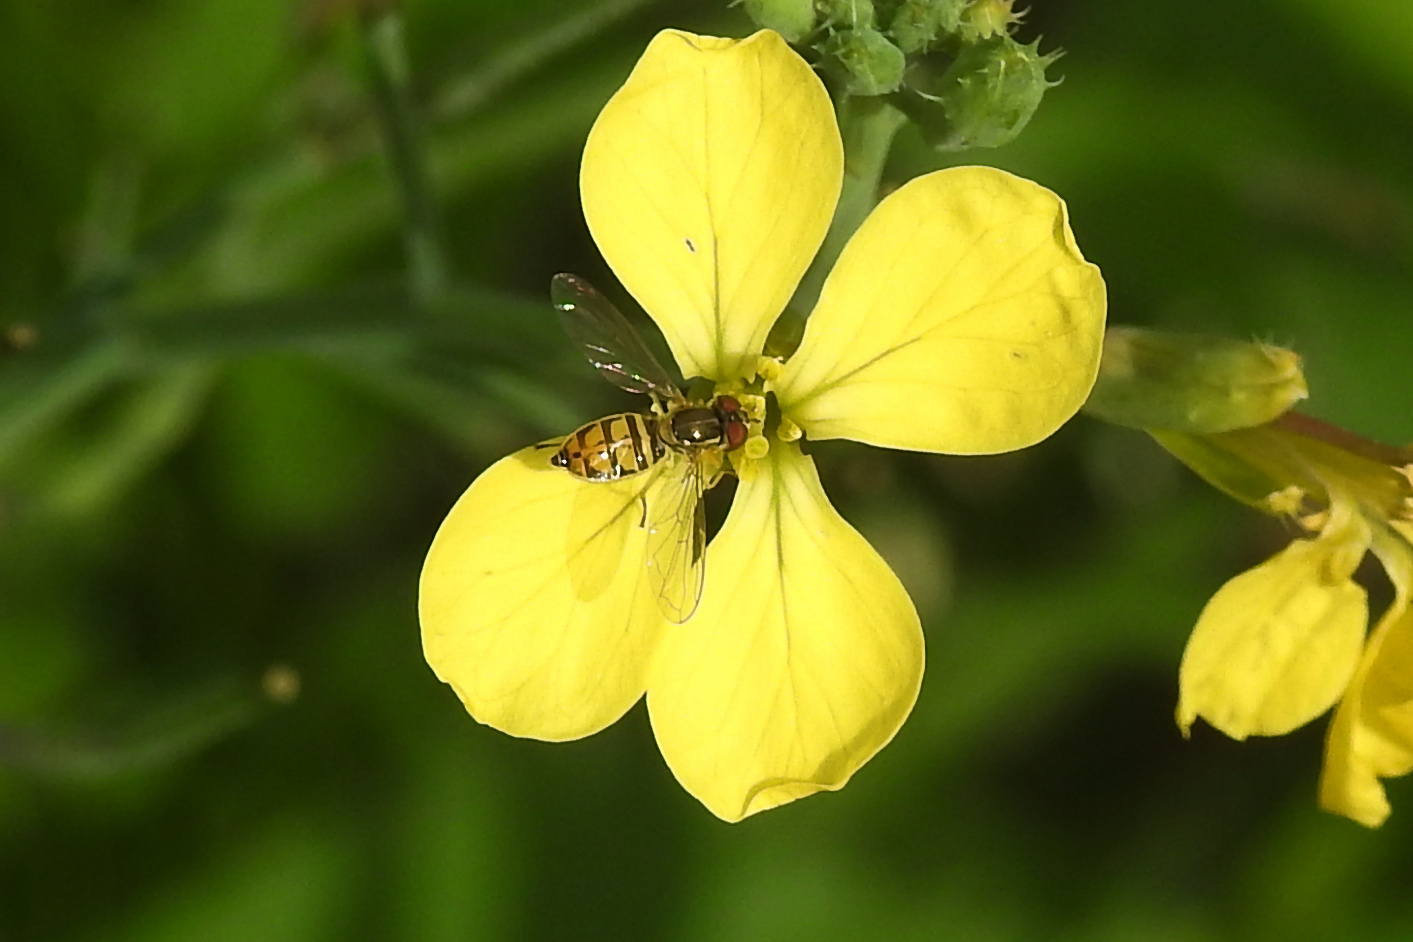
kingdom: Animalia
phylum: Arthropoda
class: Insecta
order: Diptera
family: Syrphidae
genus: Toxomerus
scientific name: Toxomerus marginatus
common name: Syrphid fly
